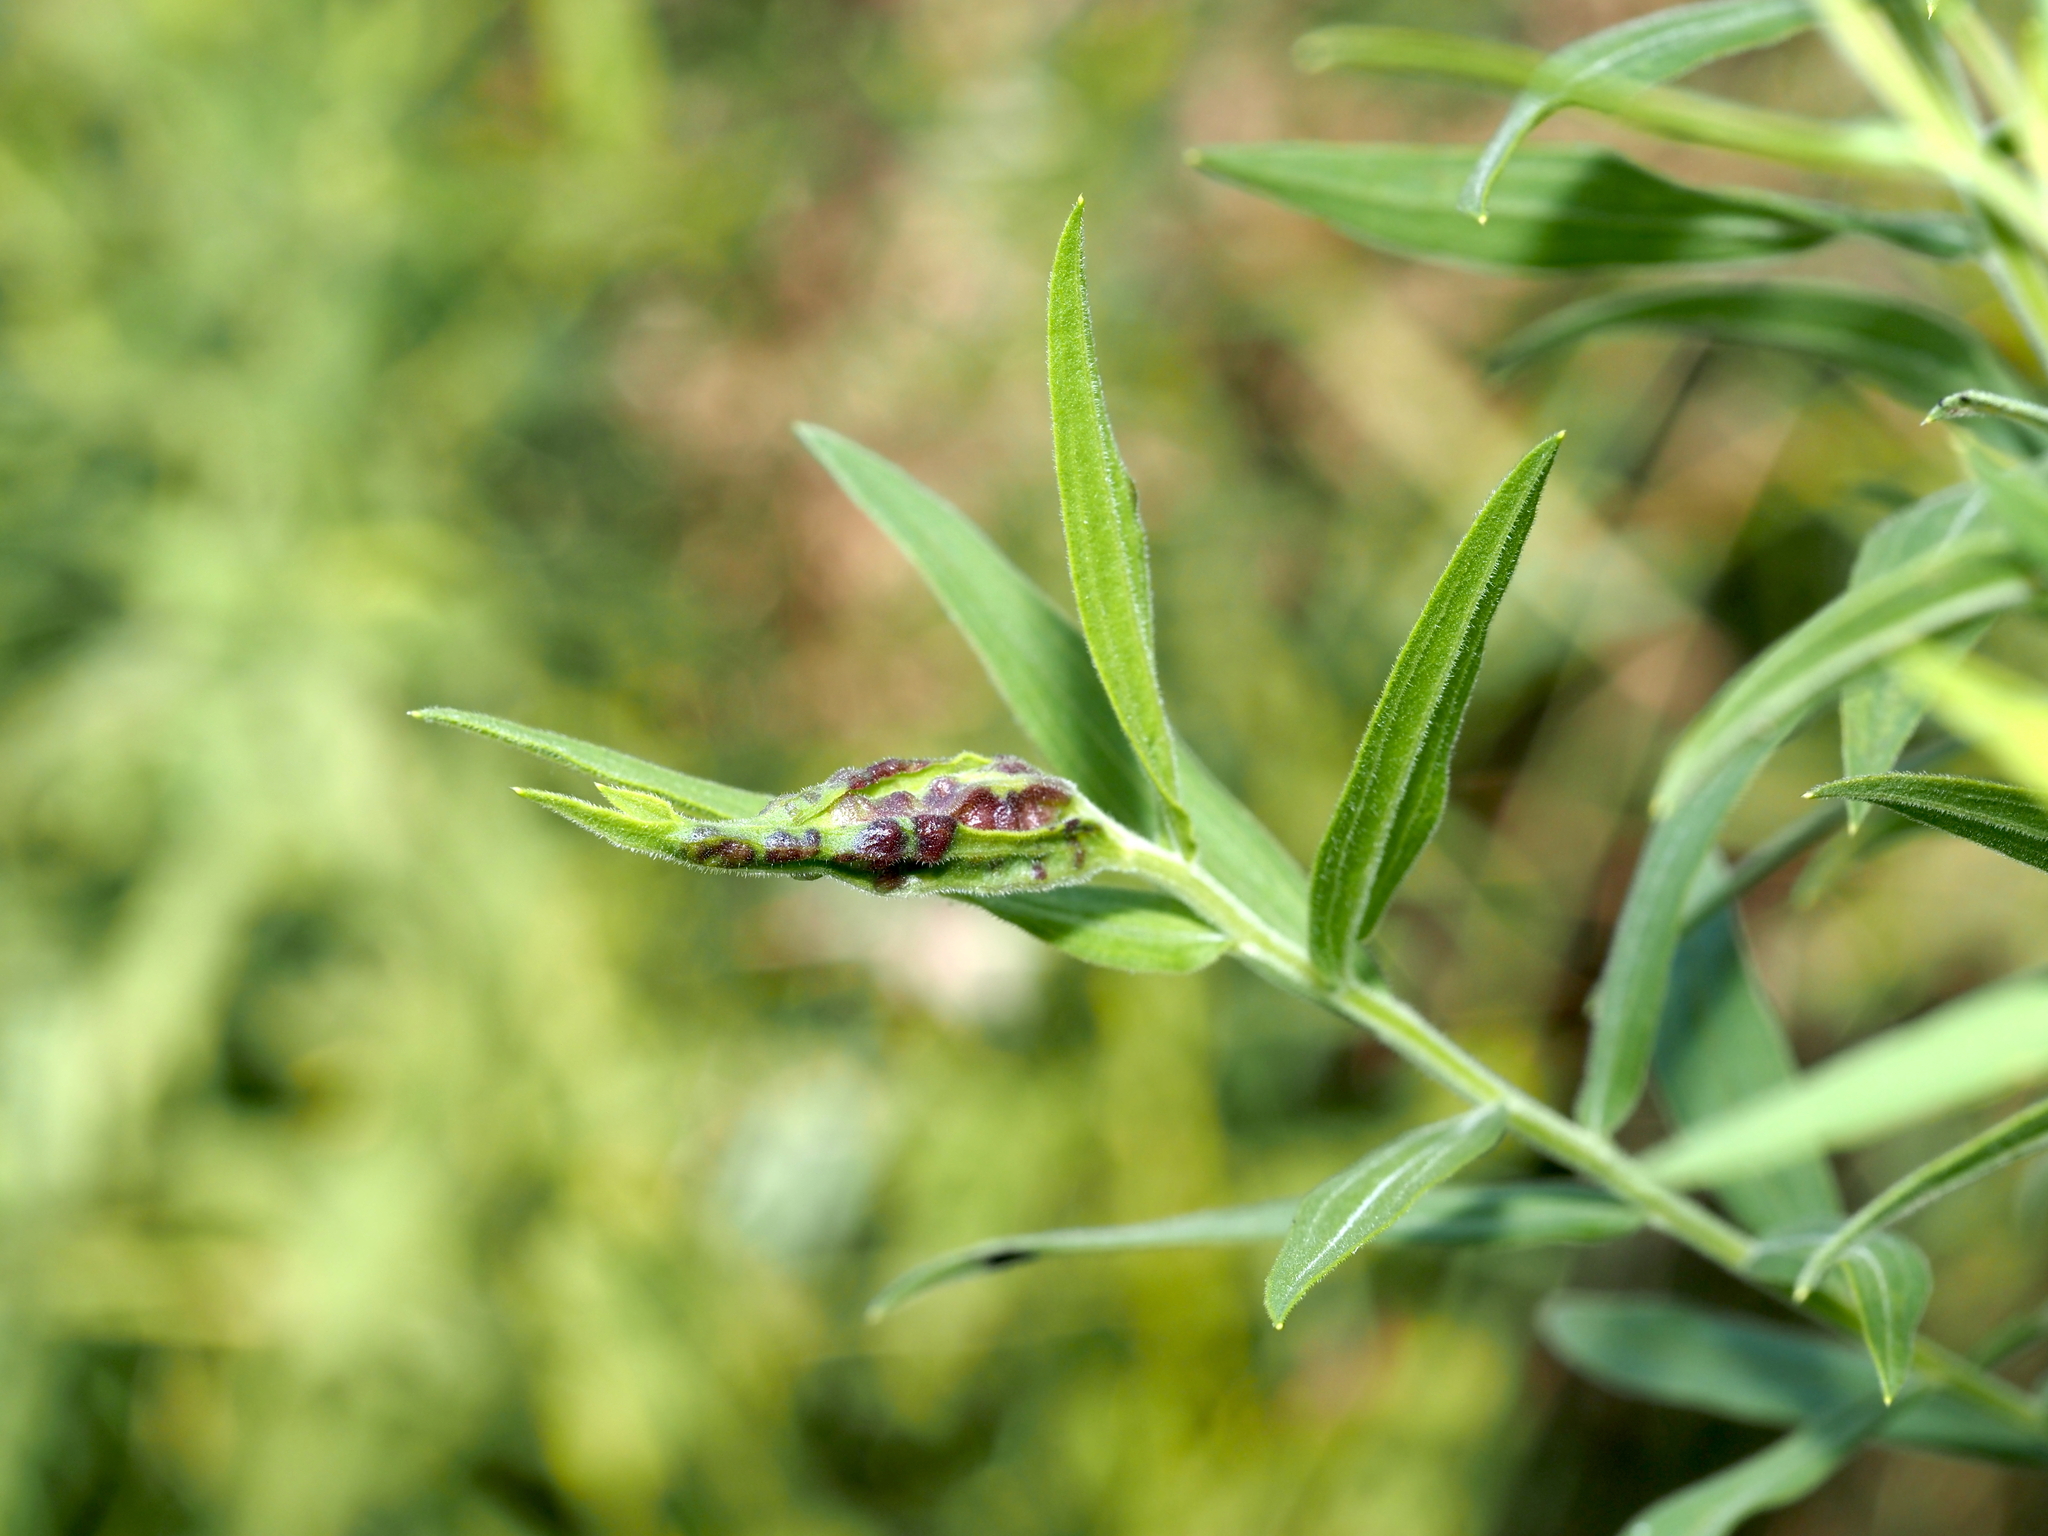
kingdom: Animalia
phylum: Arthropoda
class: Insecta
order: Diptera
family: Cecidomyiidae
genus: Dasineura
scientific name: Dasineura carbonaria
